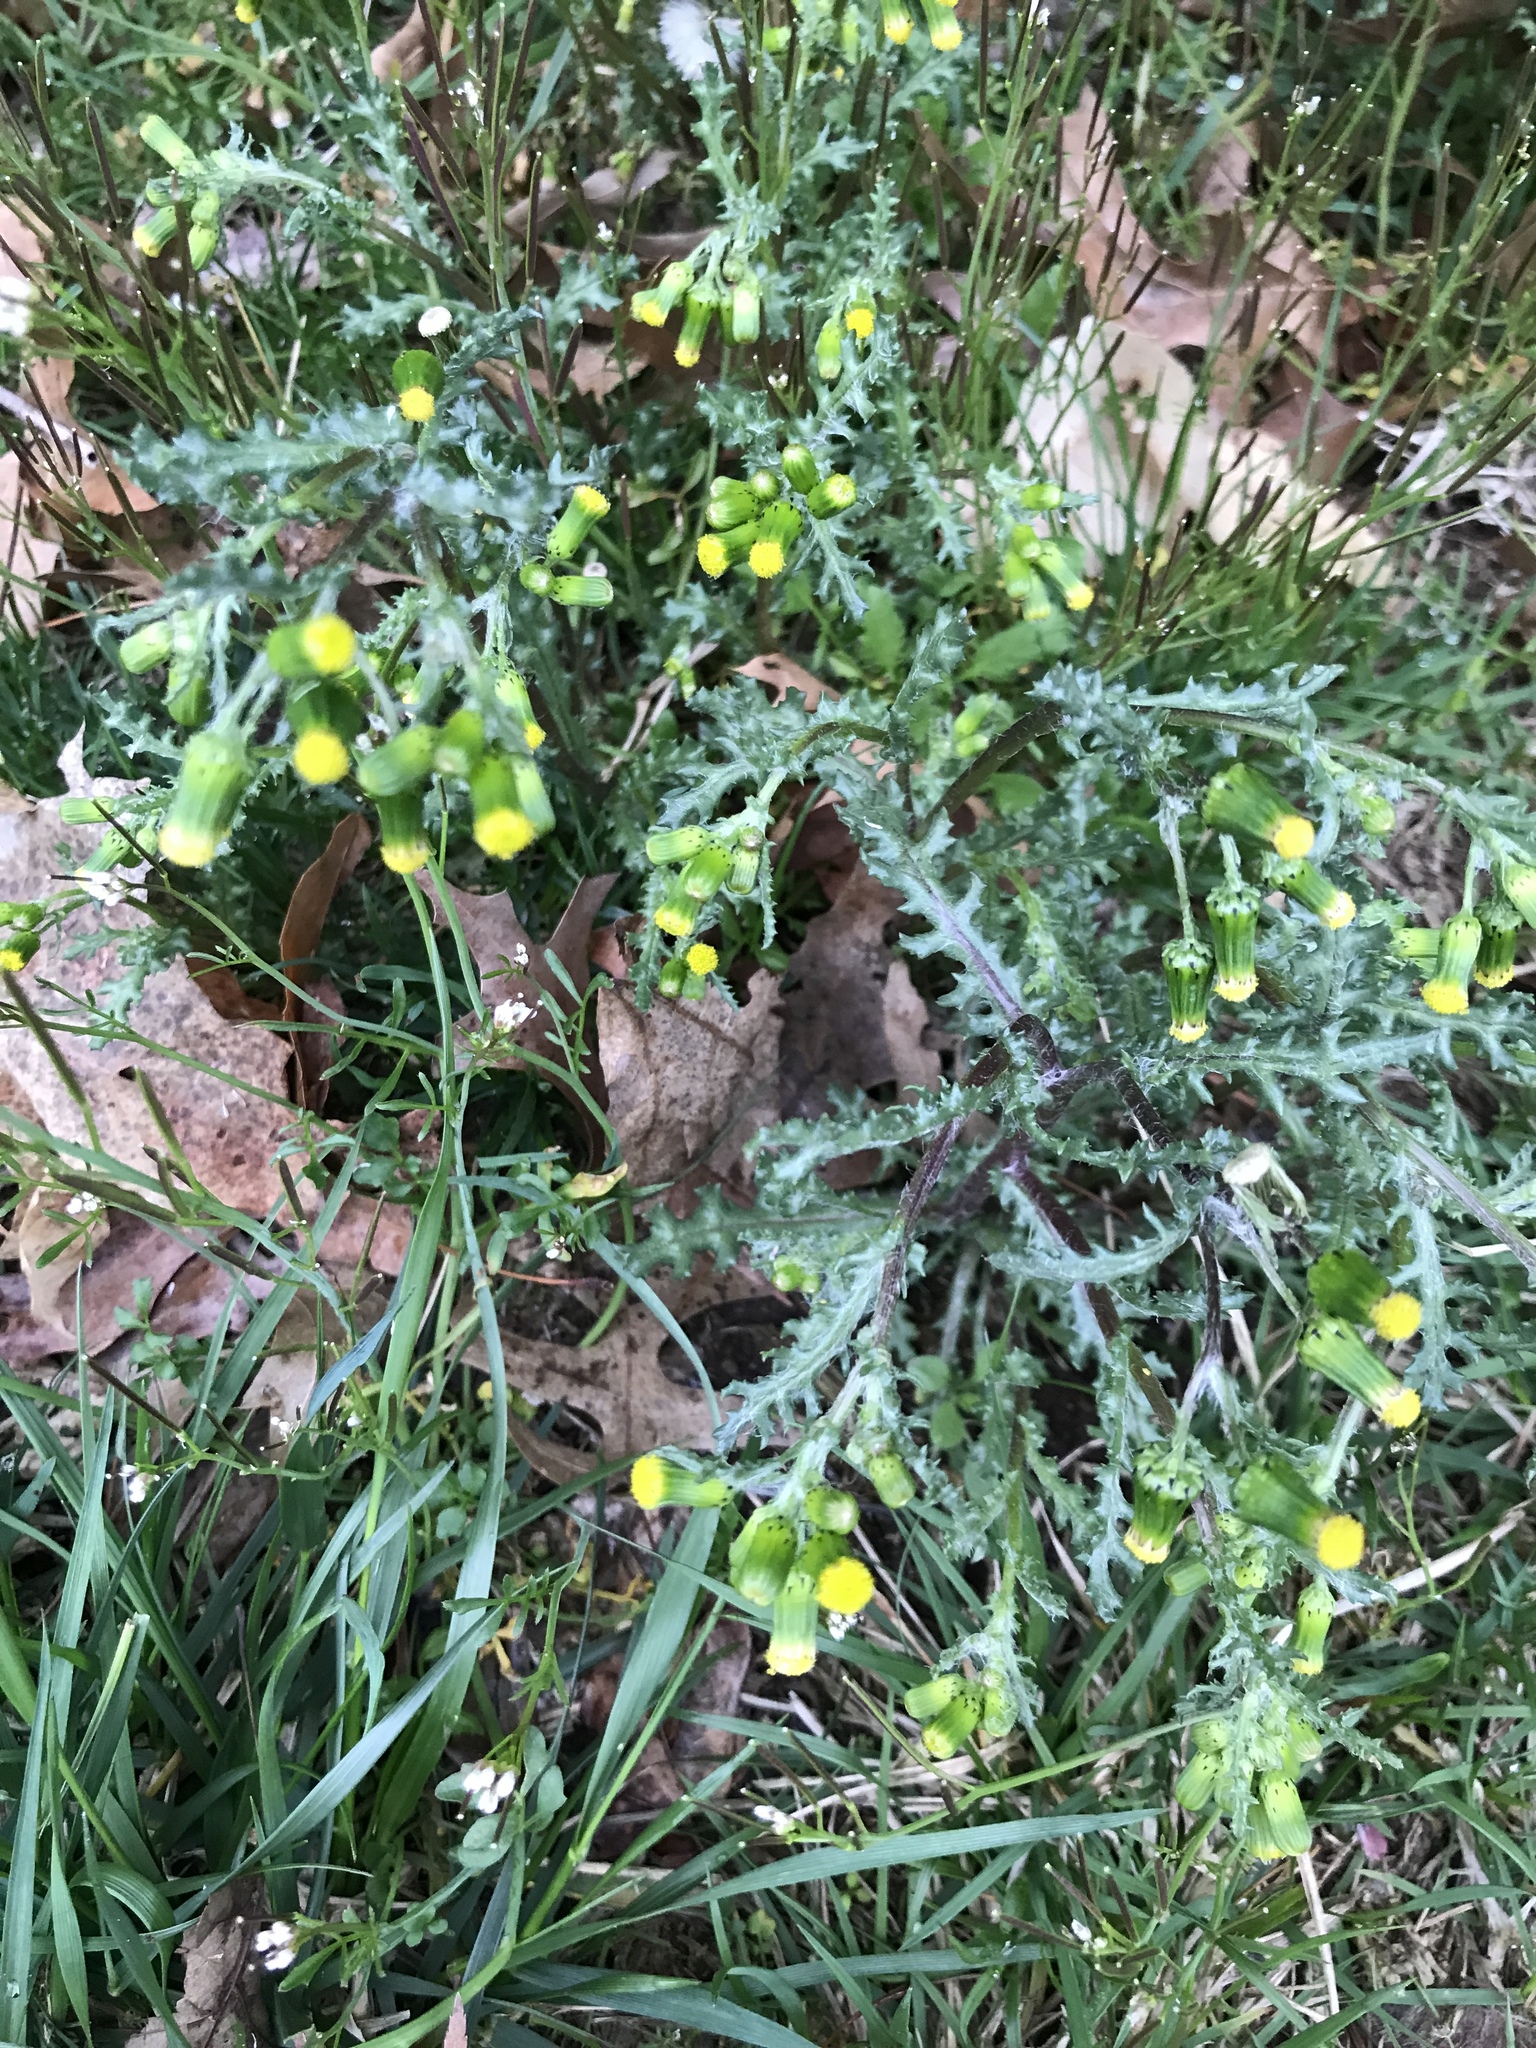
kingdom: Plantae
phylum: Tracheophyta
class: Magnoliopsida
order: Asterales
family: Asteraceae
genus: Senecio
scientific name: Senecio vulgaris
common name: Old-man-in-the-spring
